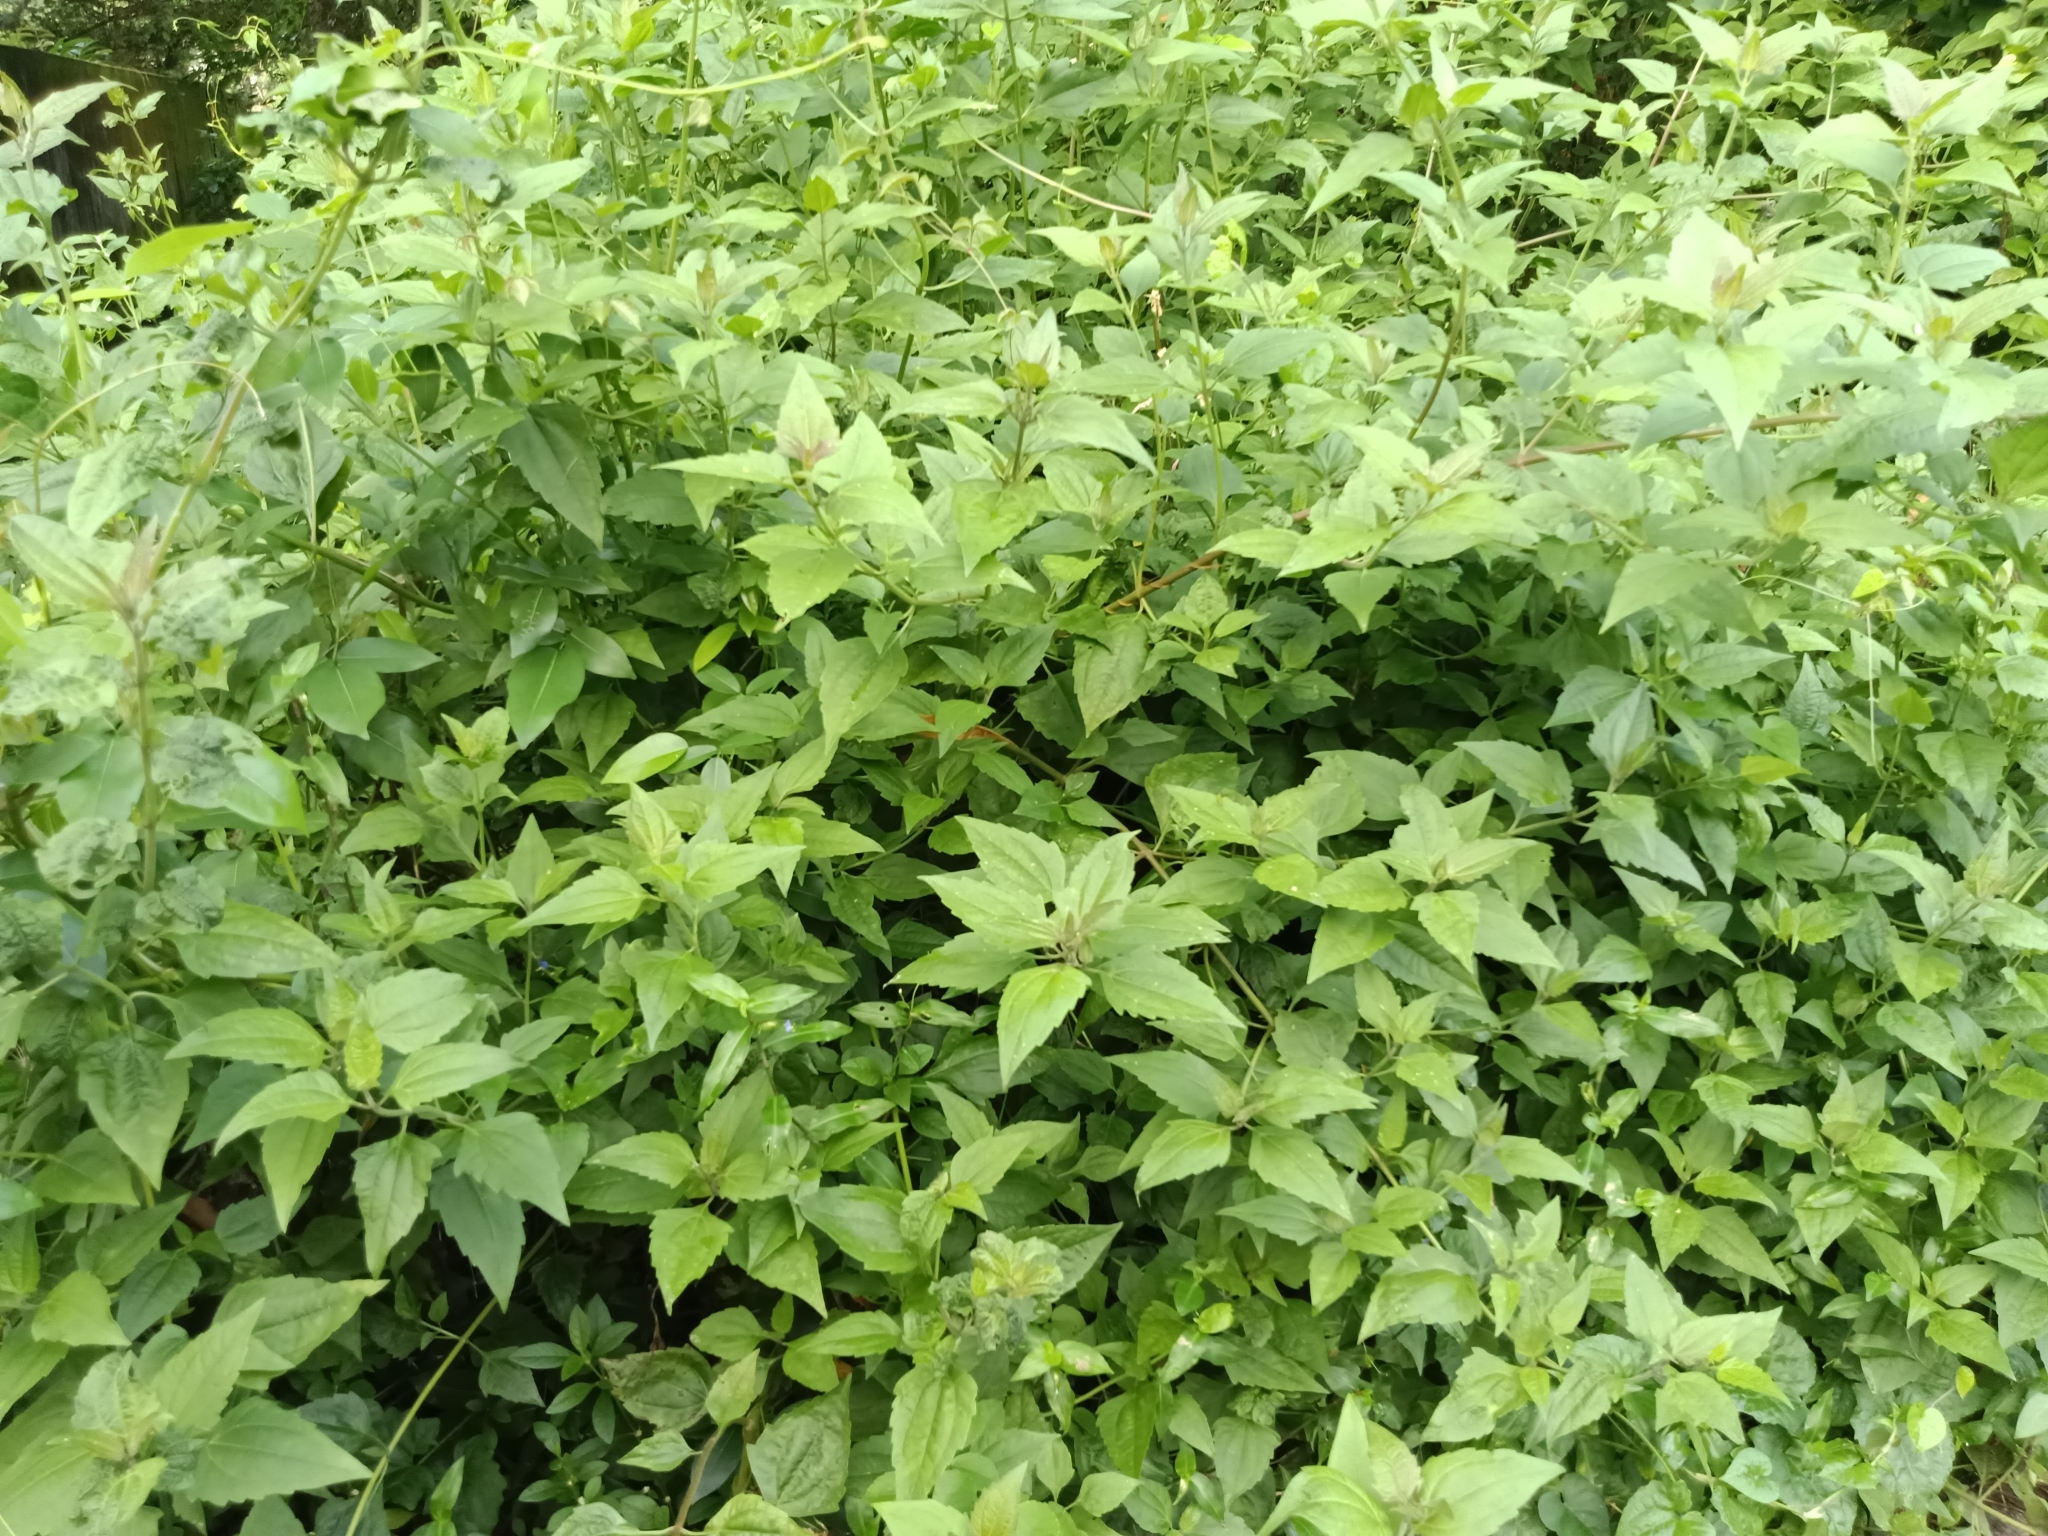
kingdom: Plantae
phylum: Tracheophyta
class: Magnoliopsida
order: Asterales
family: Asteraceae
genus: Chromolaena
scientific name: Chromolaena odorata
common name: Siamweed
